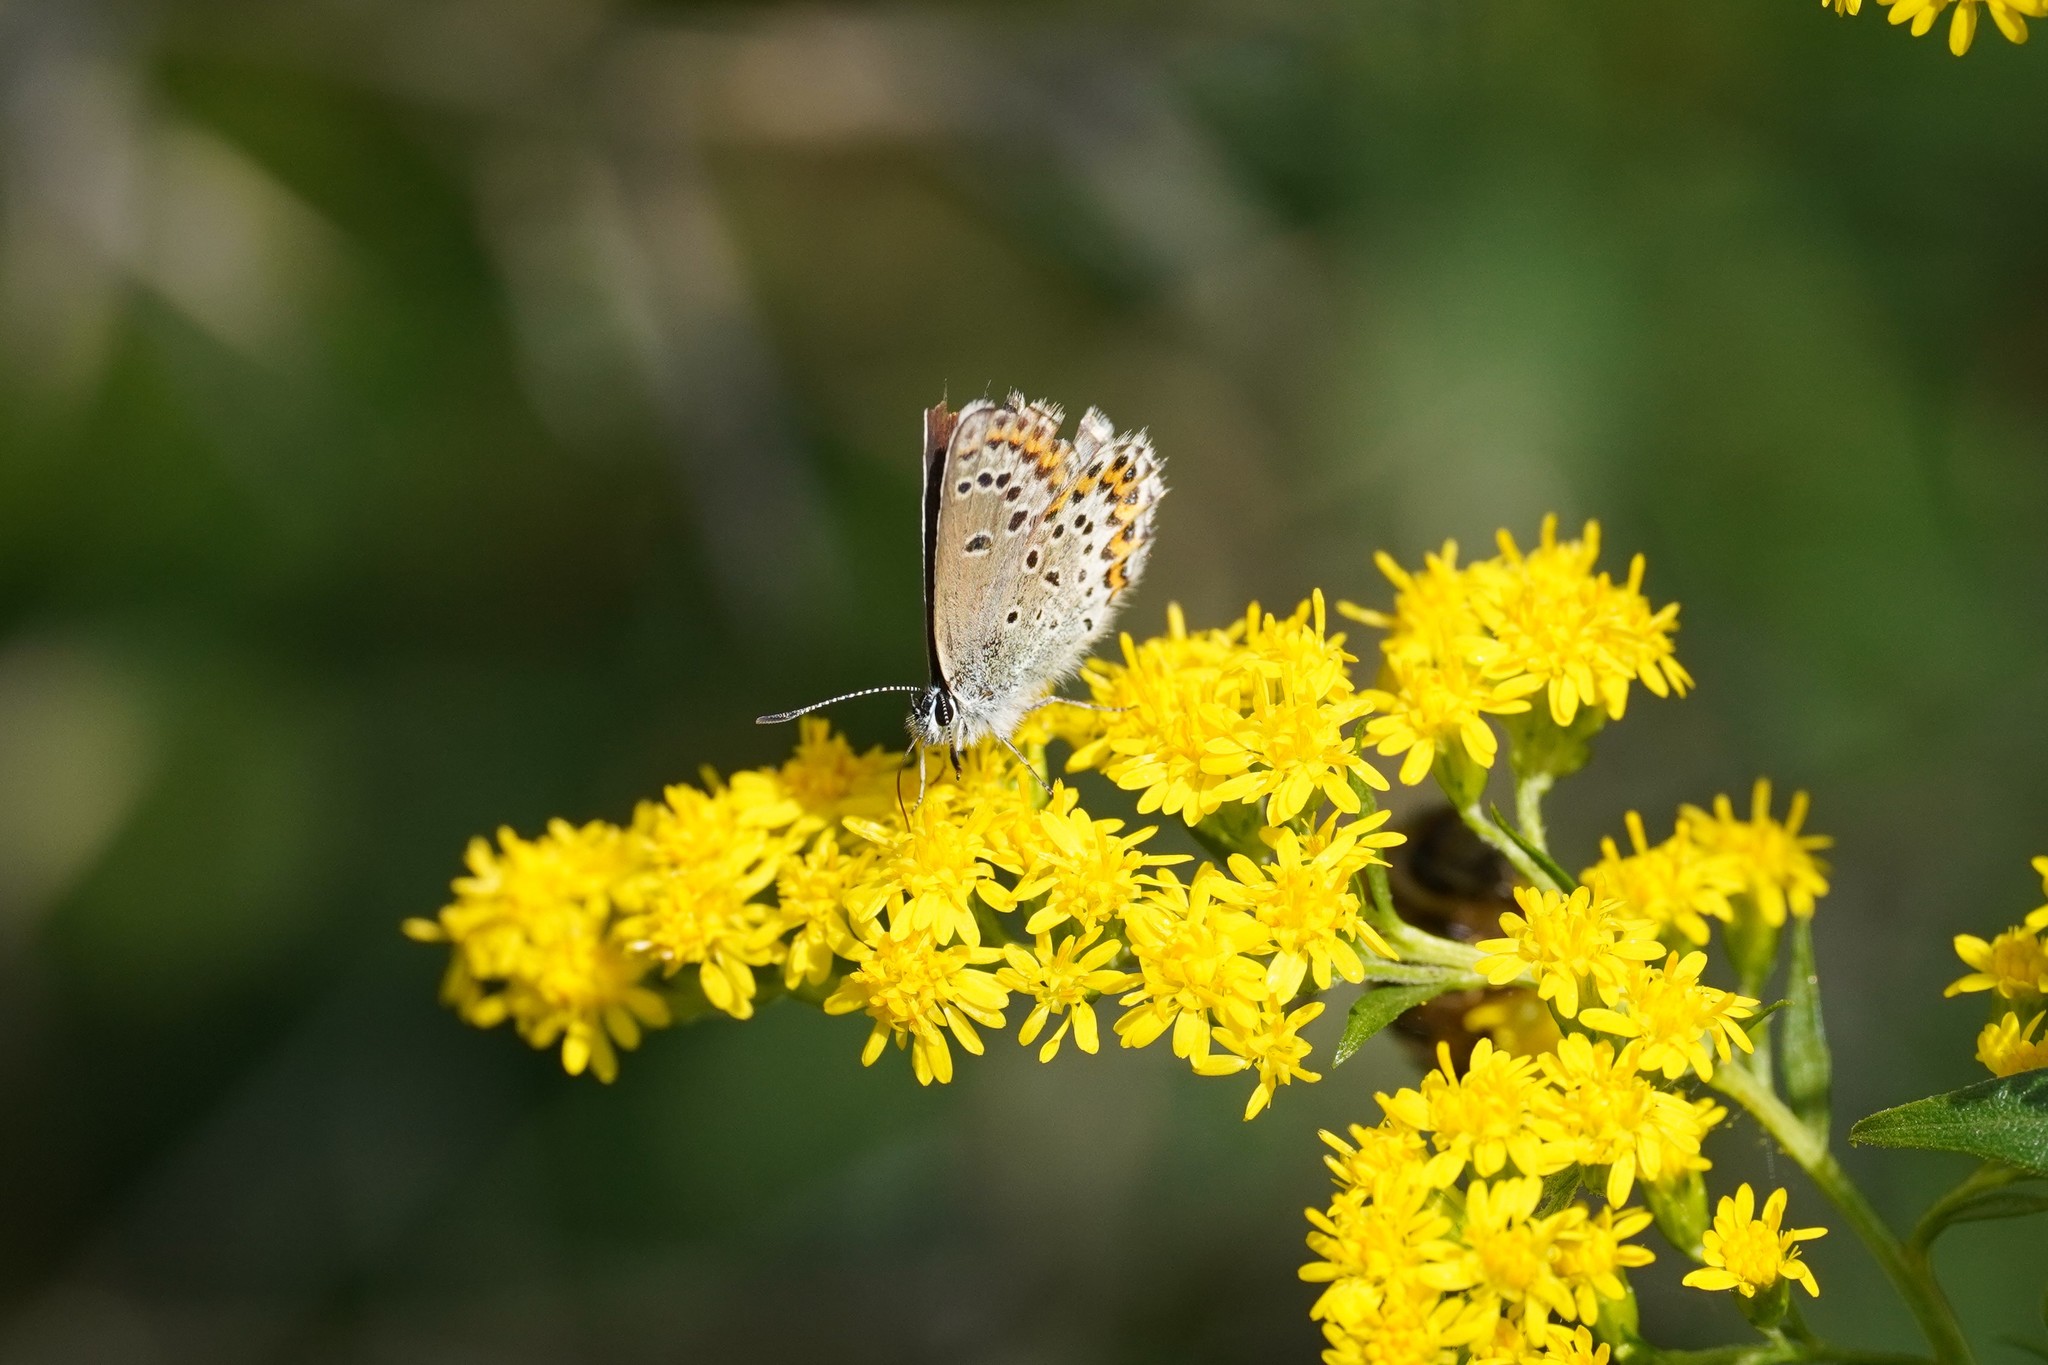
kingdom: Animalia
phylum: Arthropoda
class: Insecta
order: Lepidoptera
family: Lycaenidae
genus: Lycaeides
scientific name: Lycaeides idas
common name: Northern blue
